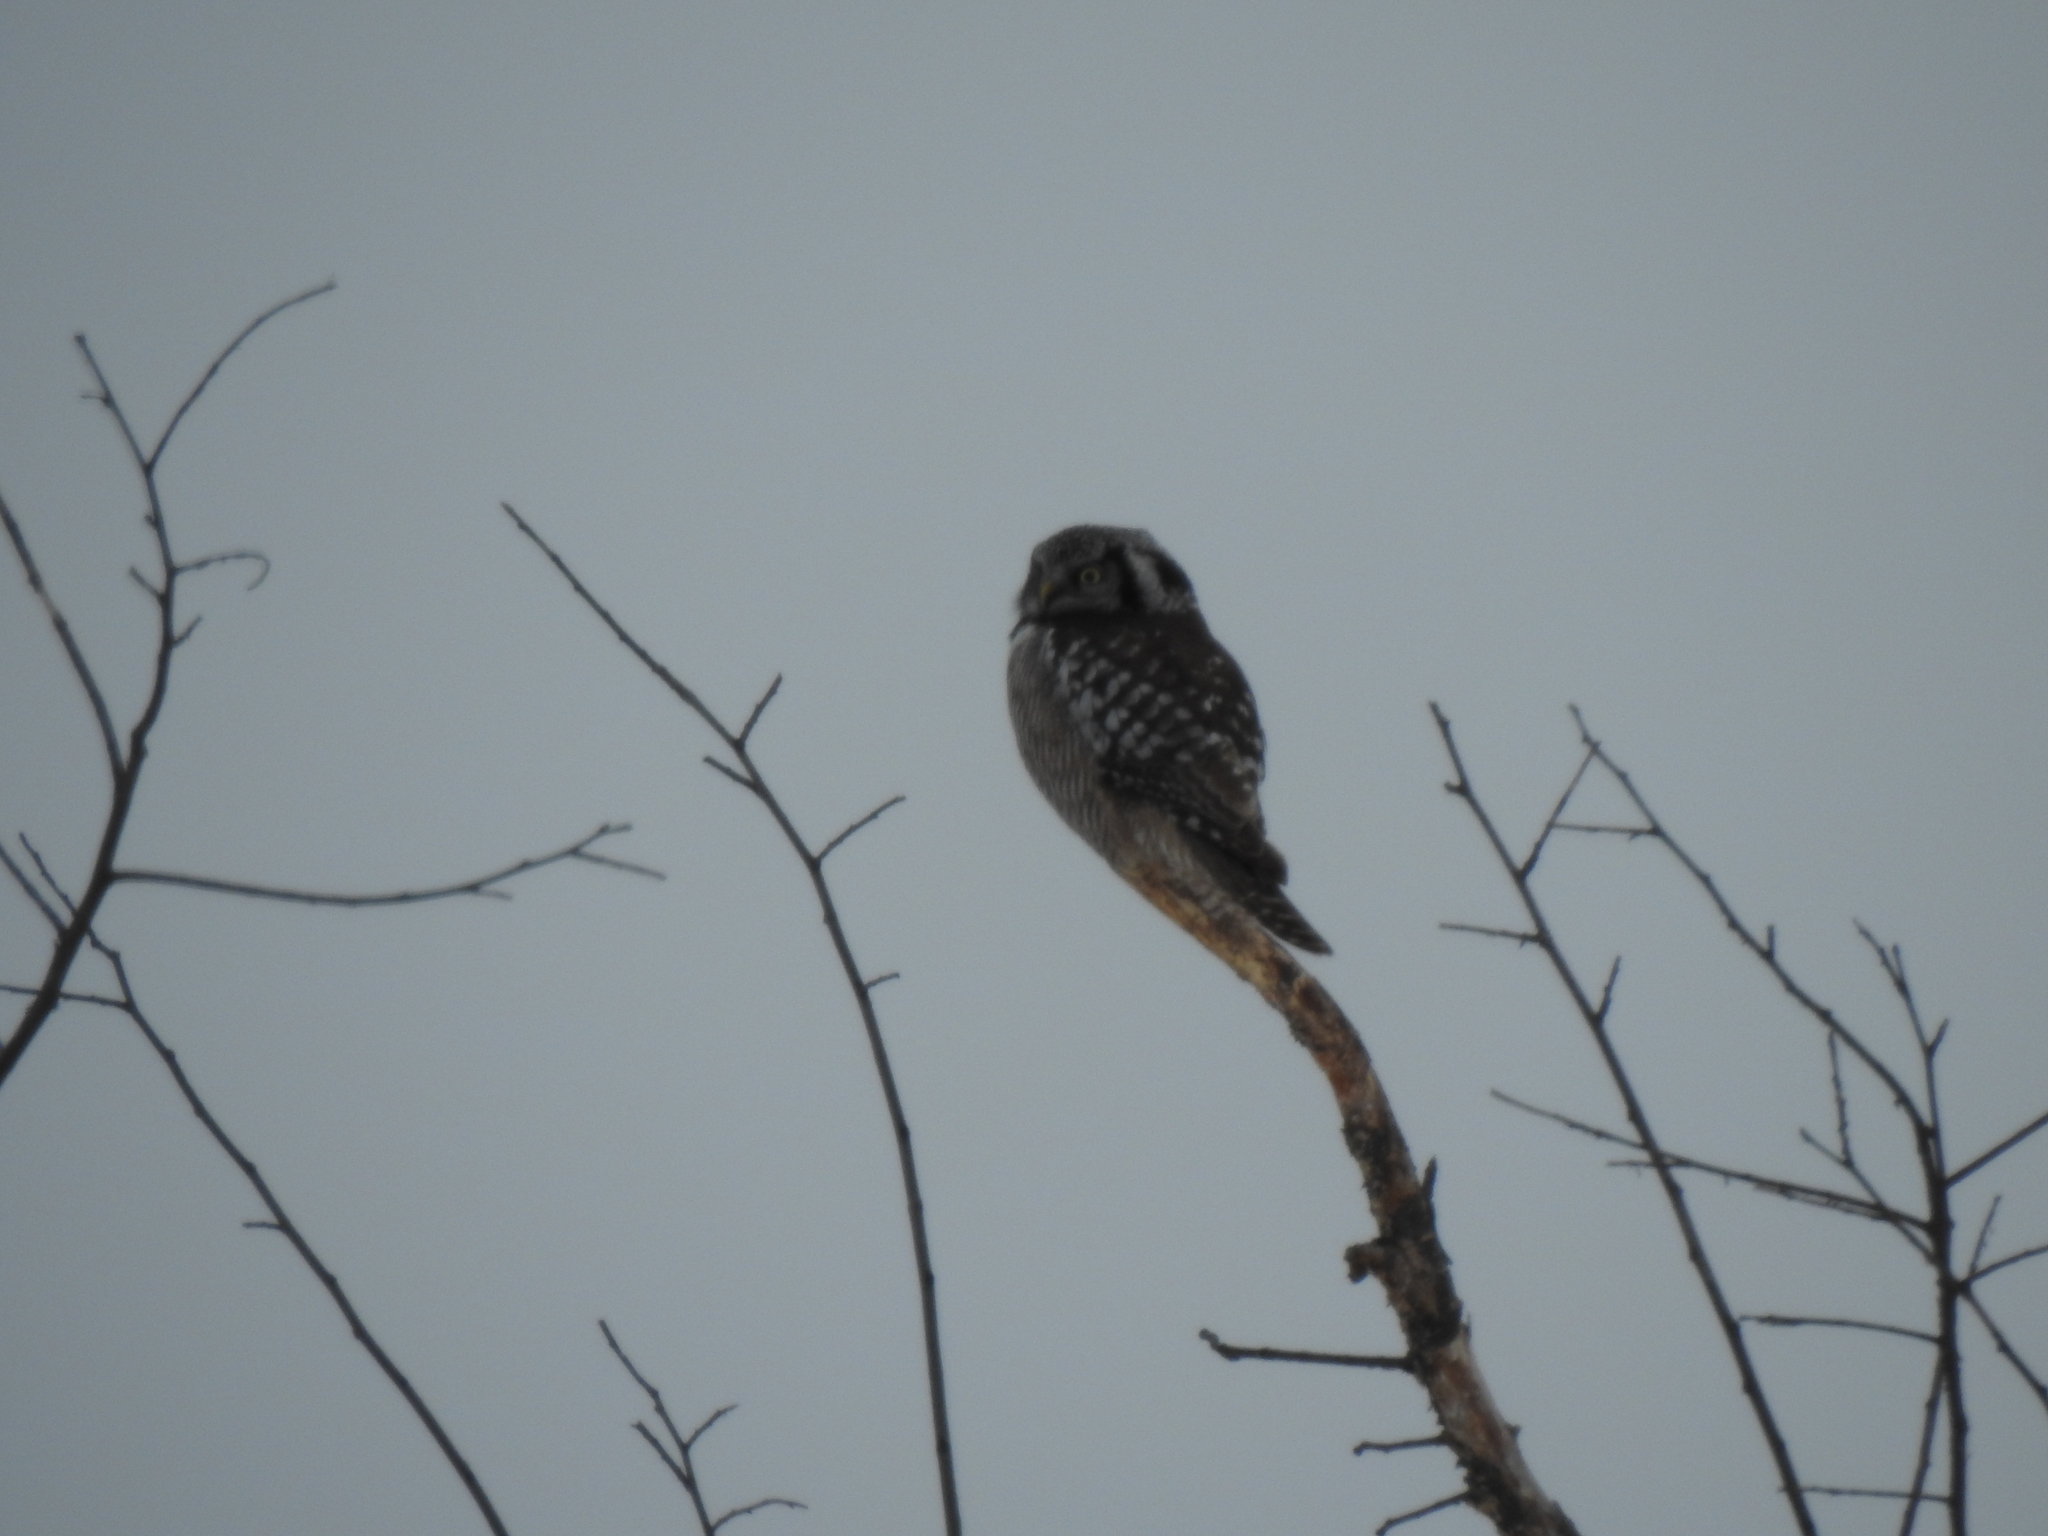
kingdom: Animalia
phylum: Chordata
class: Aves
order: Strigiformes
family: Strigidae
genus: Surnia
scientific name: Surnia ulula
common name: Northern hawk-owl
